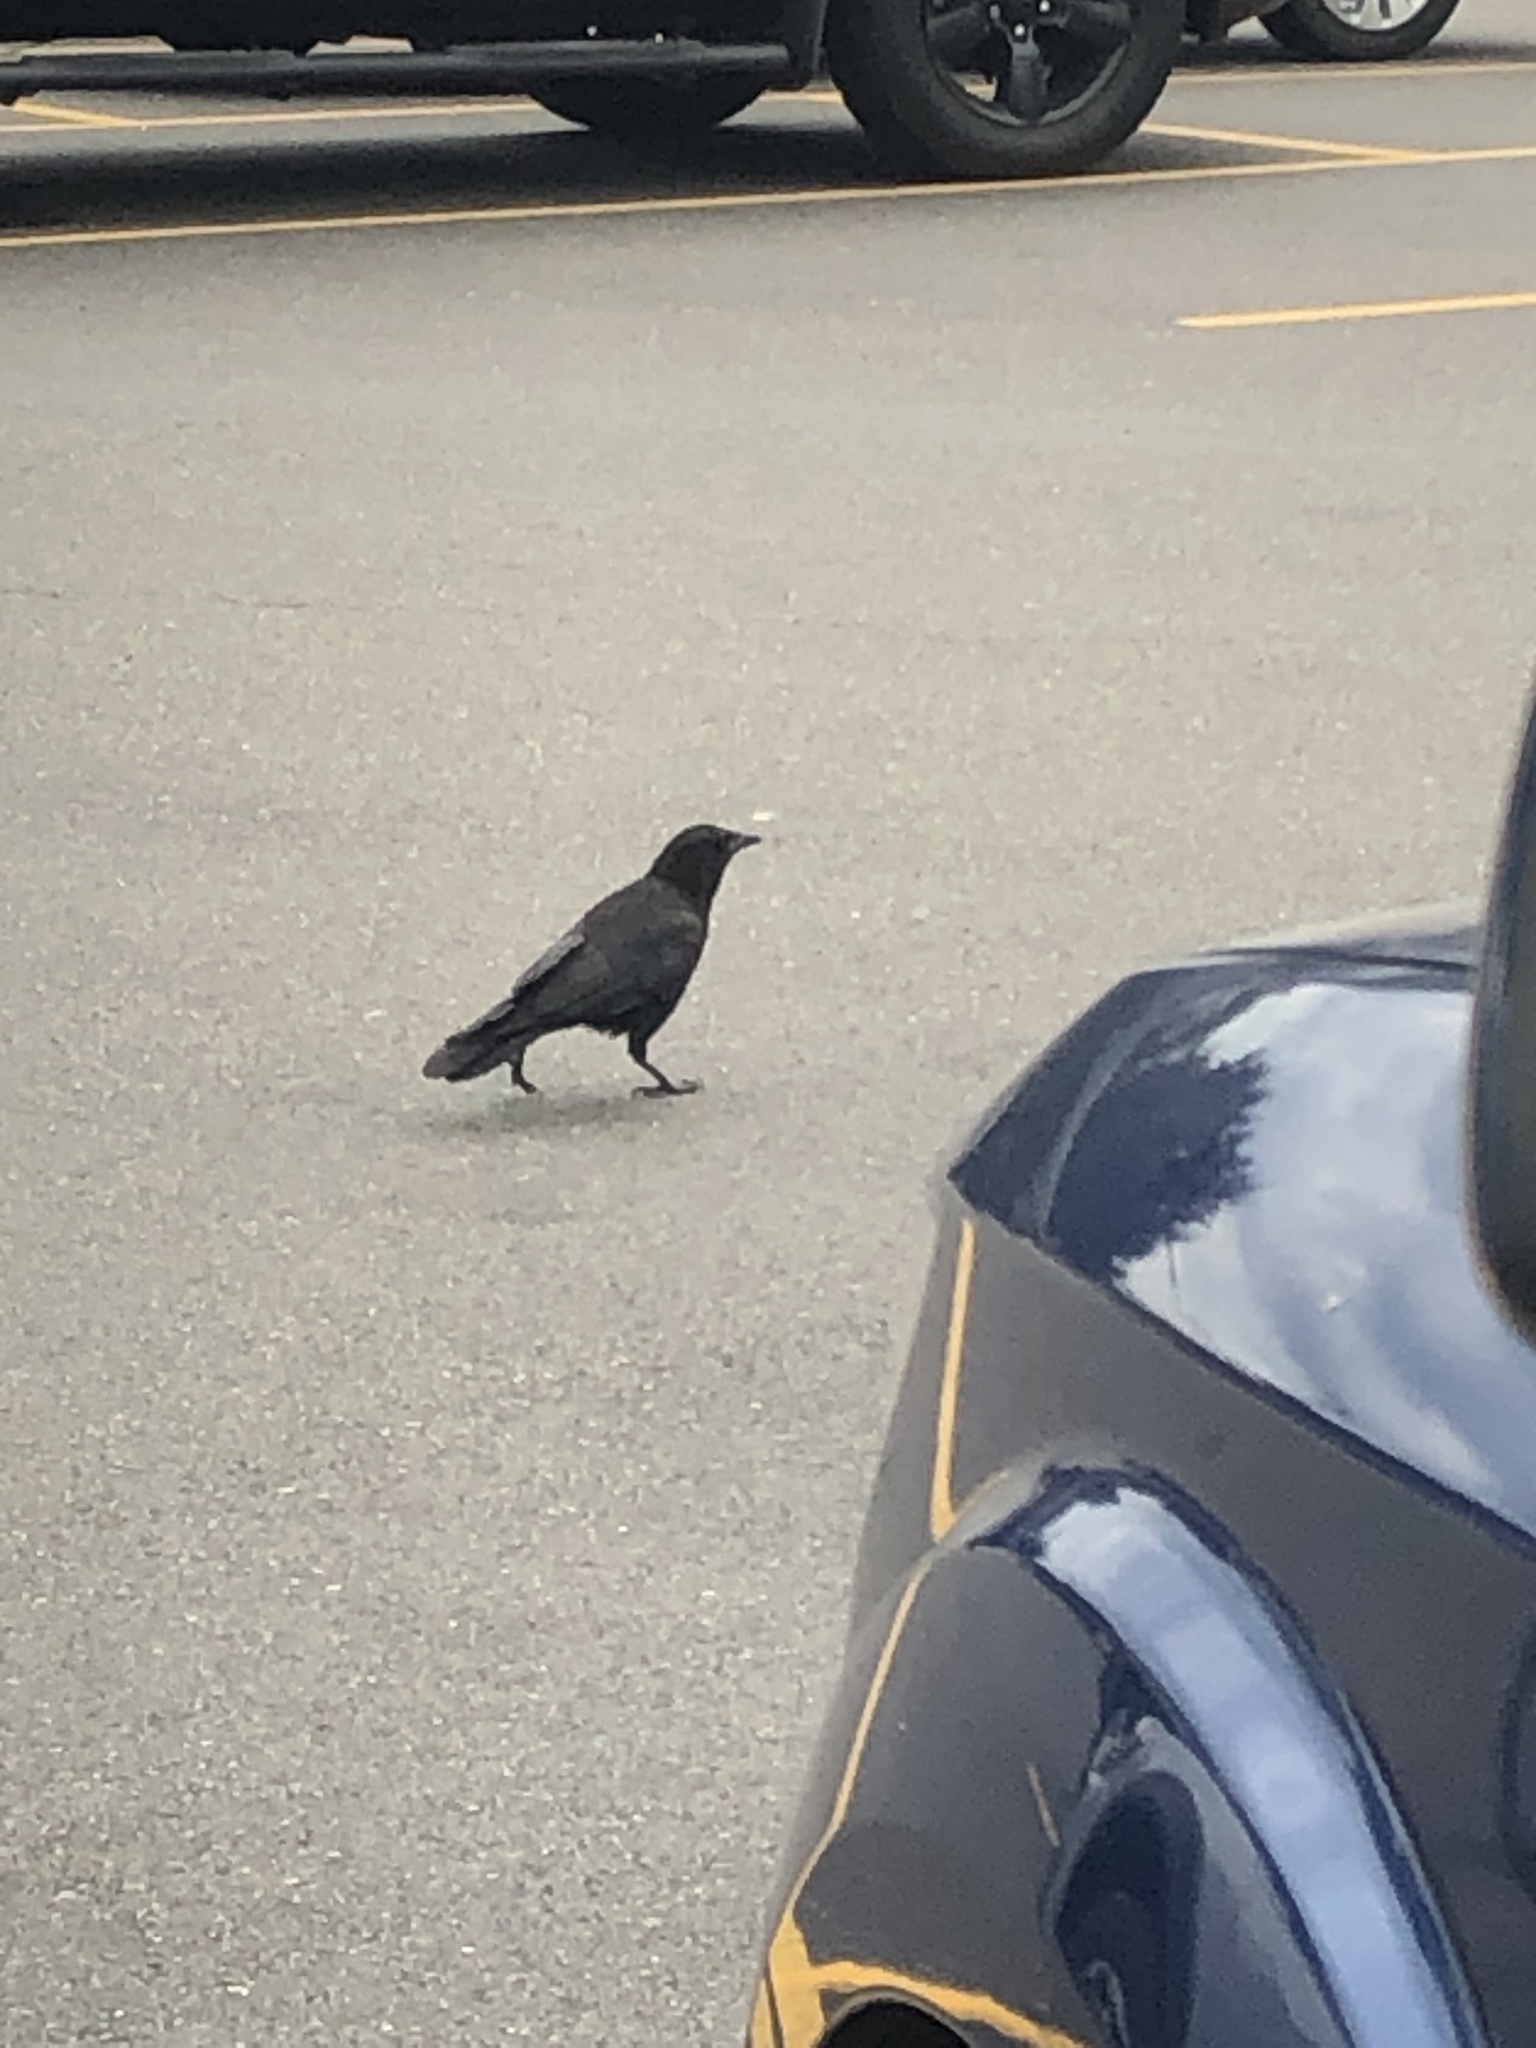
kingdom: Animalia
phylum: Chordata
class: Aves
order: Passeriformes
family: Corvidae
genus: Corvus
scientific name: Corvus brachyrhynchos
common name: American crow
